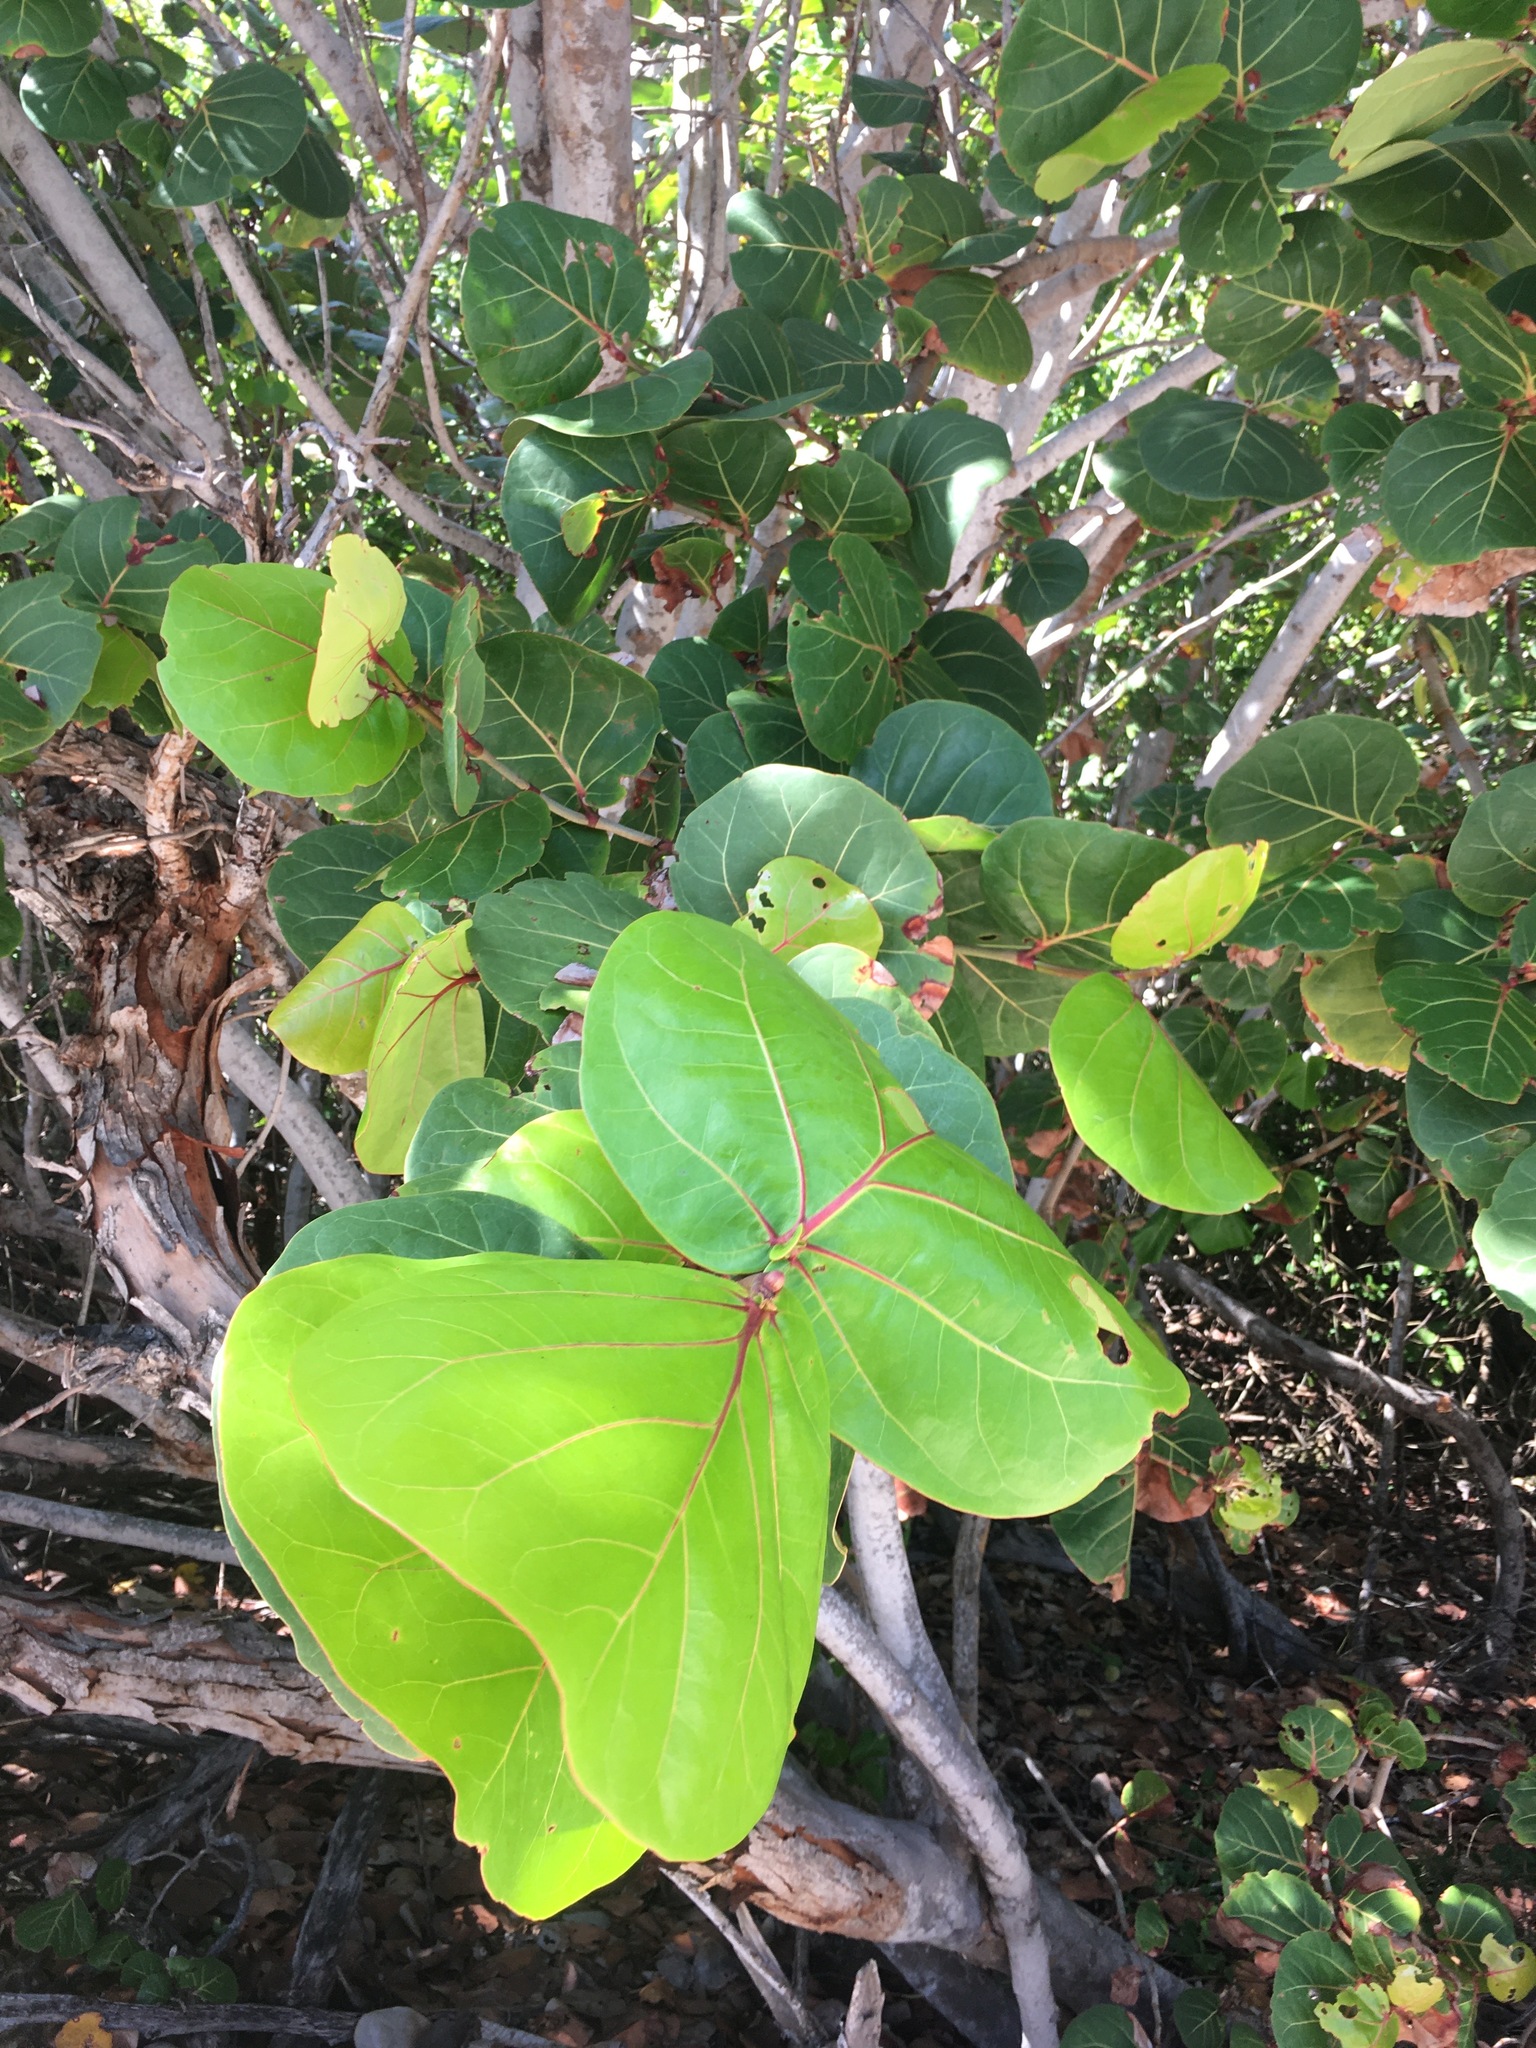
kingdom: Plantae
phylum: Tracheophyta
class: Magnoliopsida
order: Caryophyllales
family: Polygonaceae
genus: Coccoloba
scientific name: Coccoloba uvifera
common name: Seagrape
